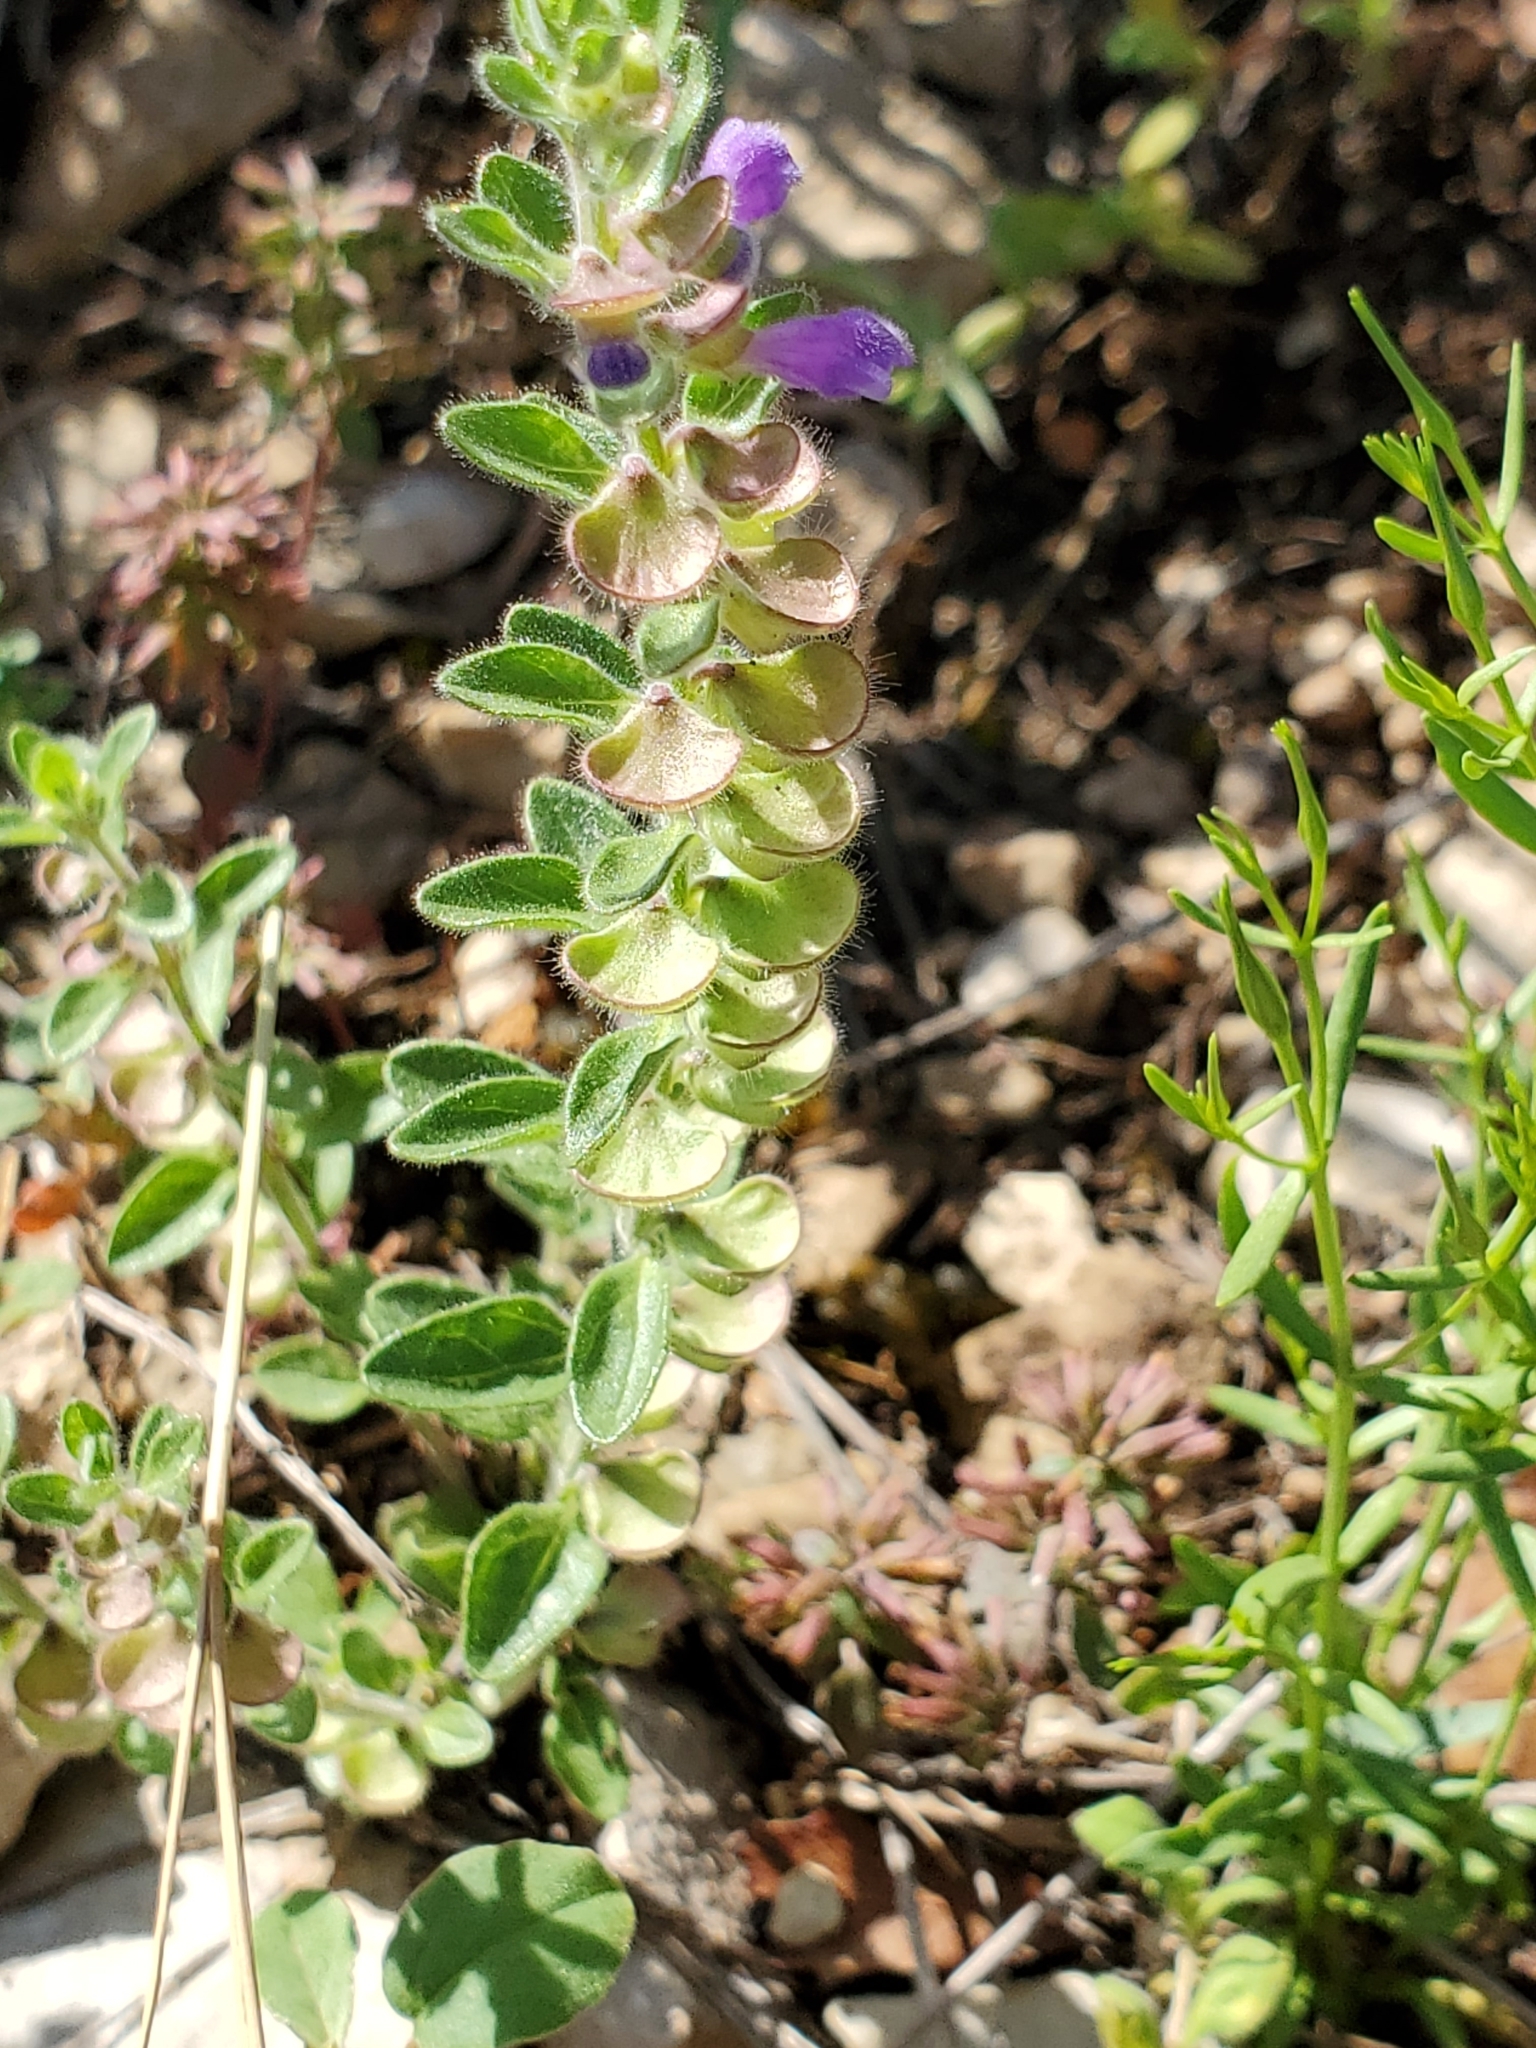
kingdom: Plantae
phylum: Tracheophyta
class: Magnoliopsida
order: Lamiales
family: Lamiaceae
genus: Scutellaria
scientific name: Scutellaria drummondii
